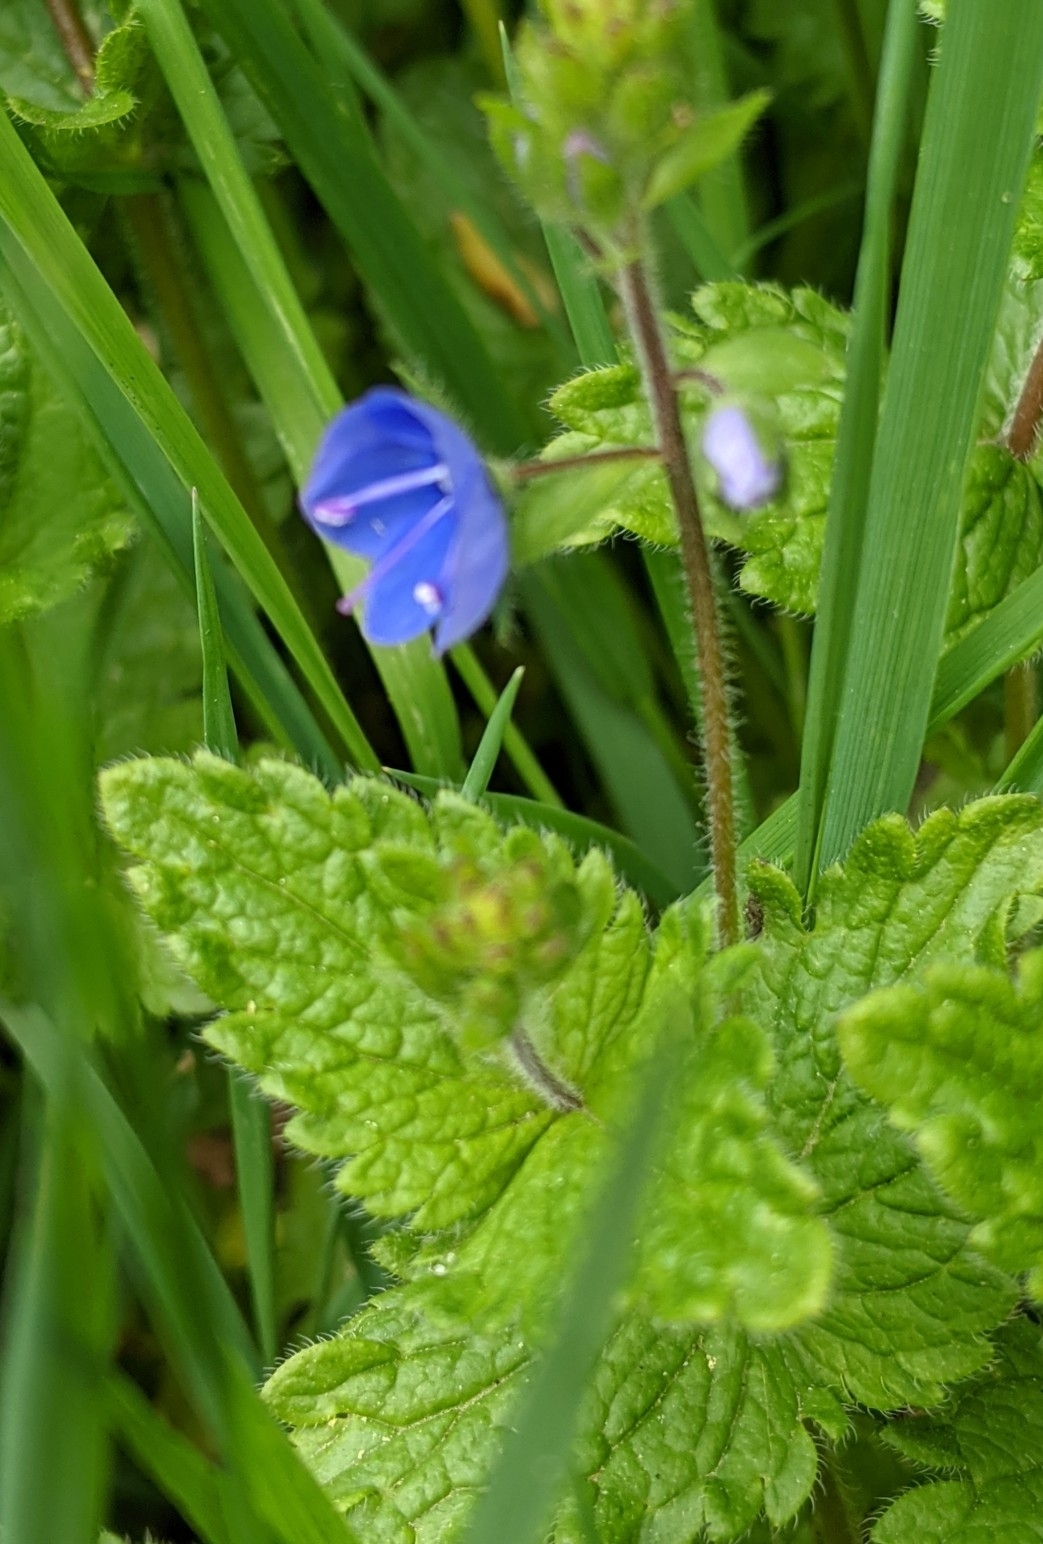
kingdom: Plantae
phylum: Tracheophyta
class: Magnoliopsida
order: Lamiales
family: Plantaginaceae
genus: Veronica
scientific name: Veronica chamaedrys
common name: Germander speedwell
